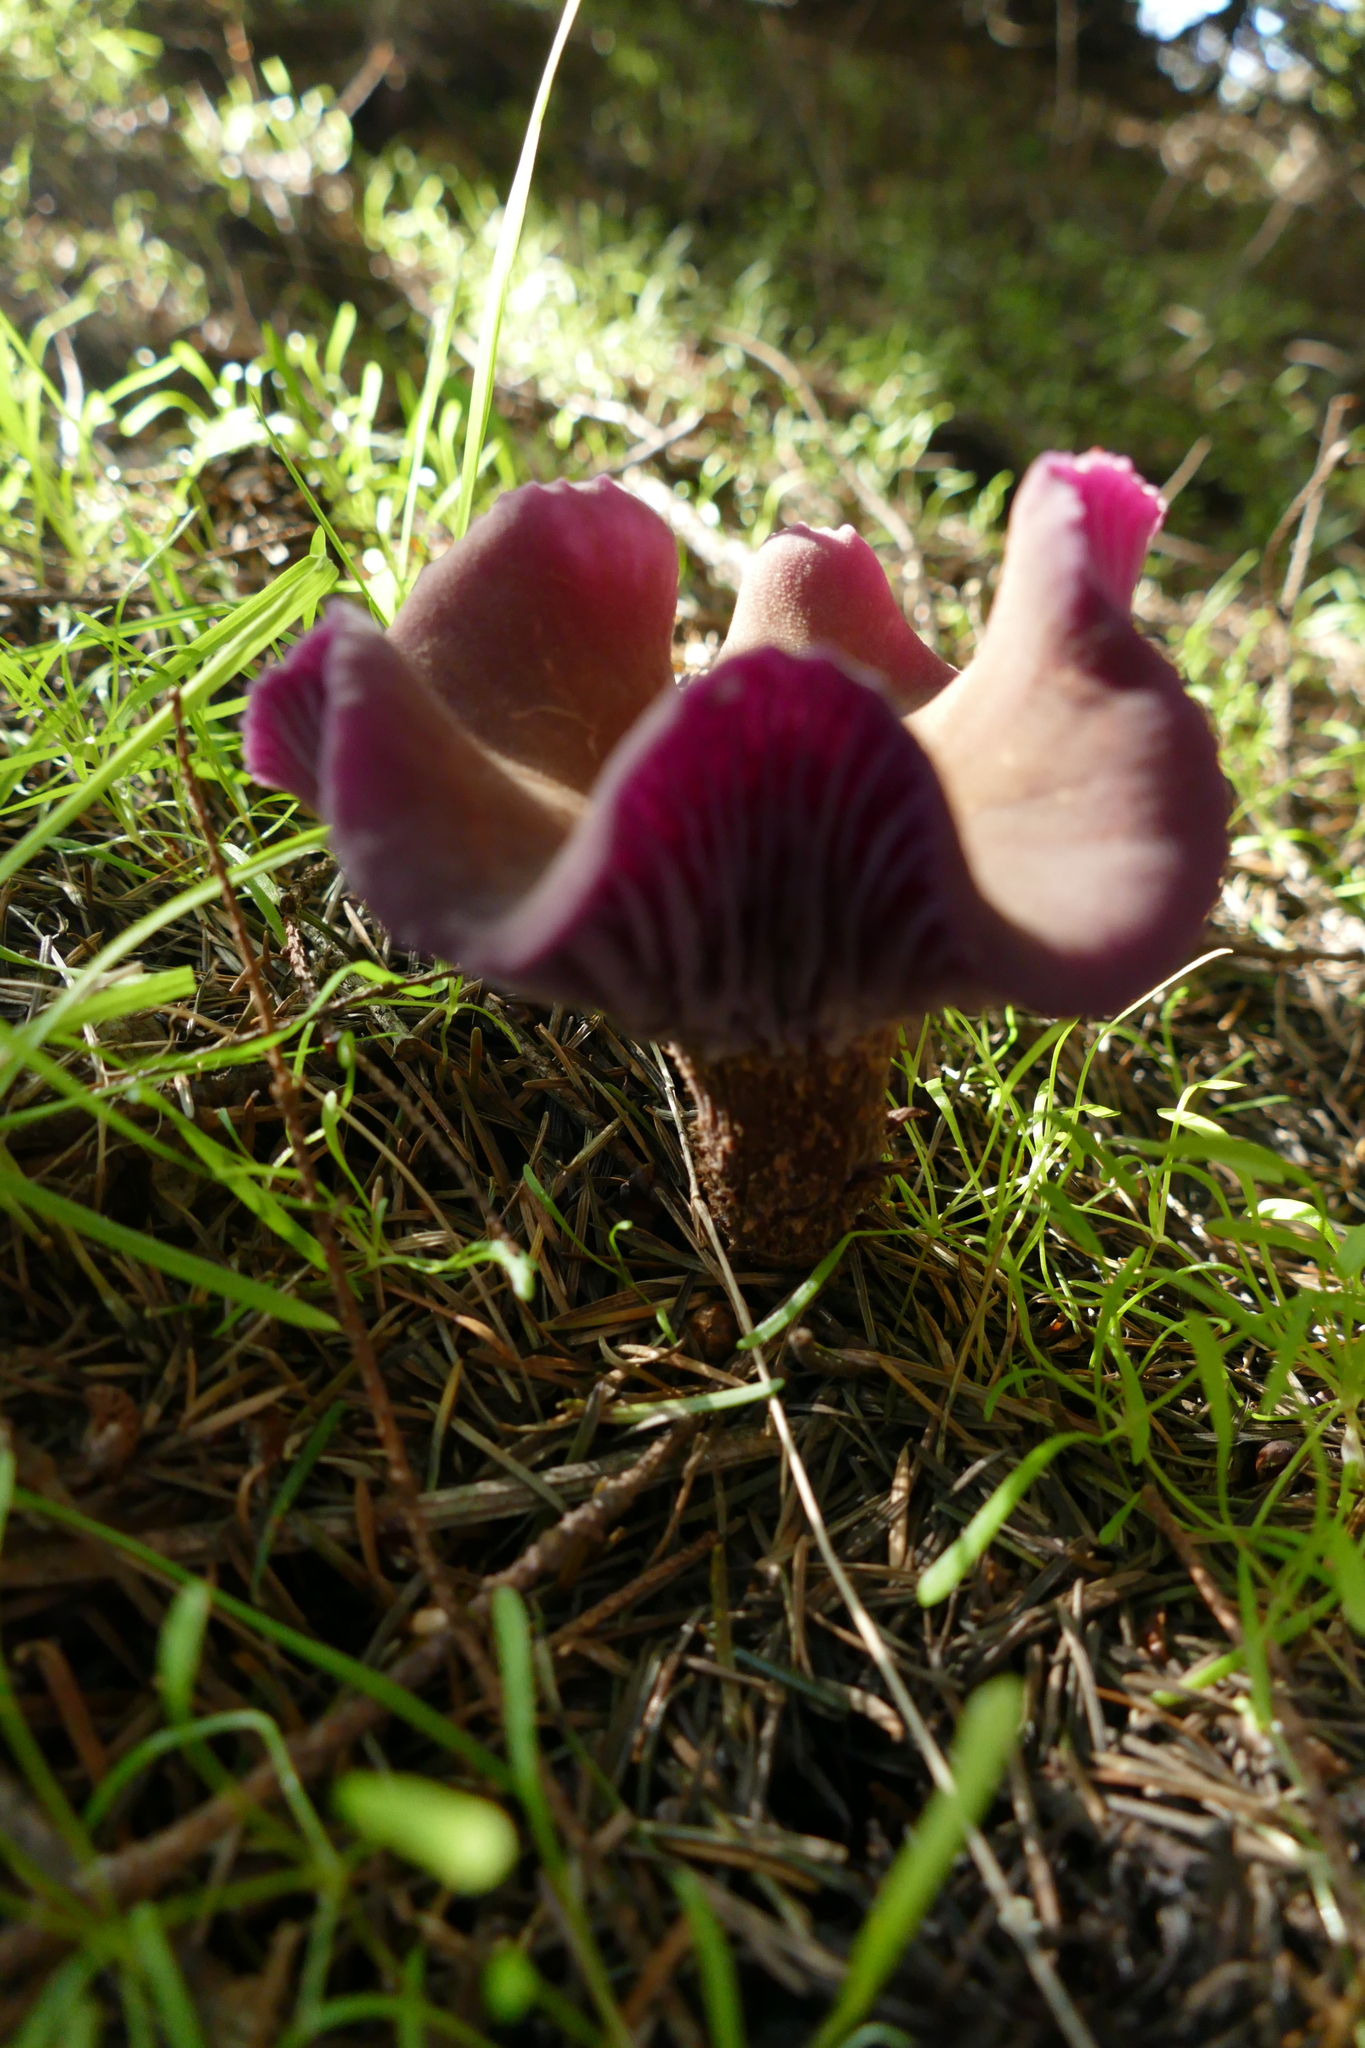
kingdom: Fungi
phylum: Basidiomycota
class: Agaricomycetes
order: Agaricales
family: Hydnangiaceae
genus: Laccaria
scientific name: Laccaria amethysteo-occidentalis
